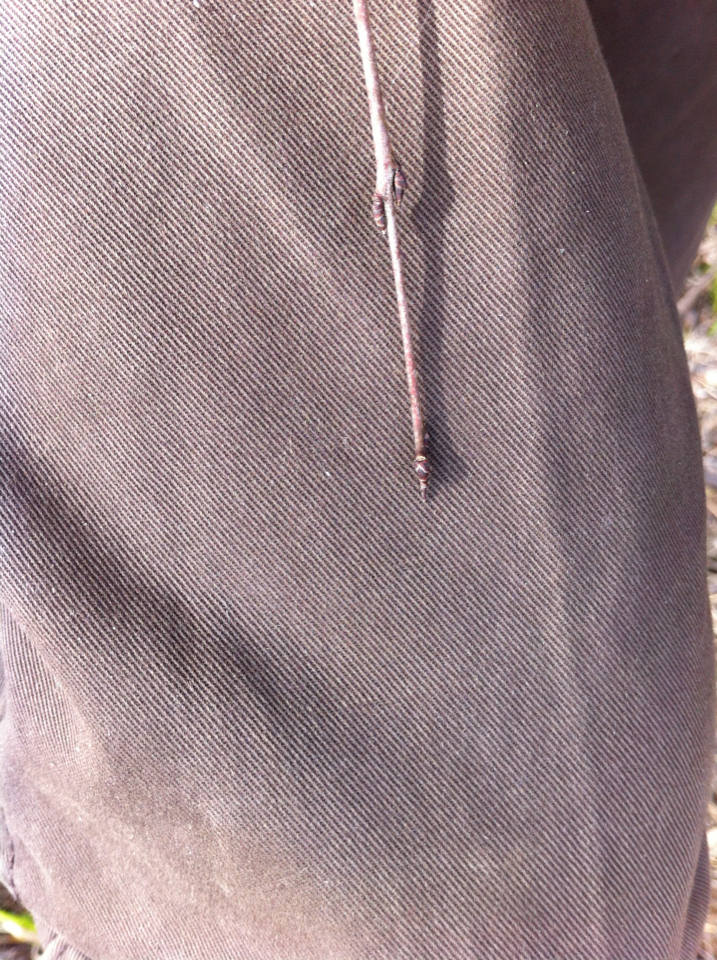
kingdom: Plantae
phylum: Tracheophyta
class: Magnoliopsida
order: Rosales
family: Rhamnaceae
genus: Rhamnus
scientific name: Rhamnus cathartica
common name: Common buckthorn
